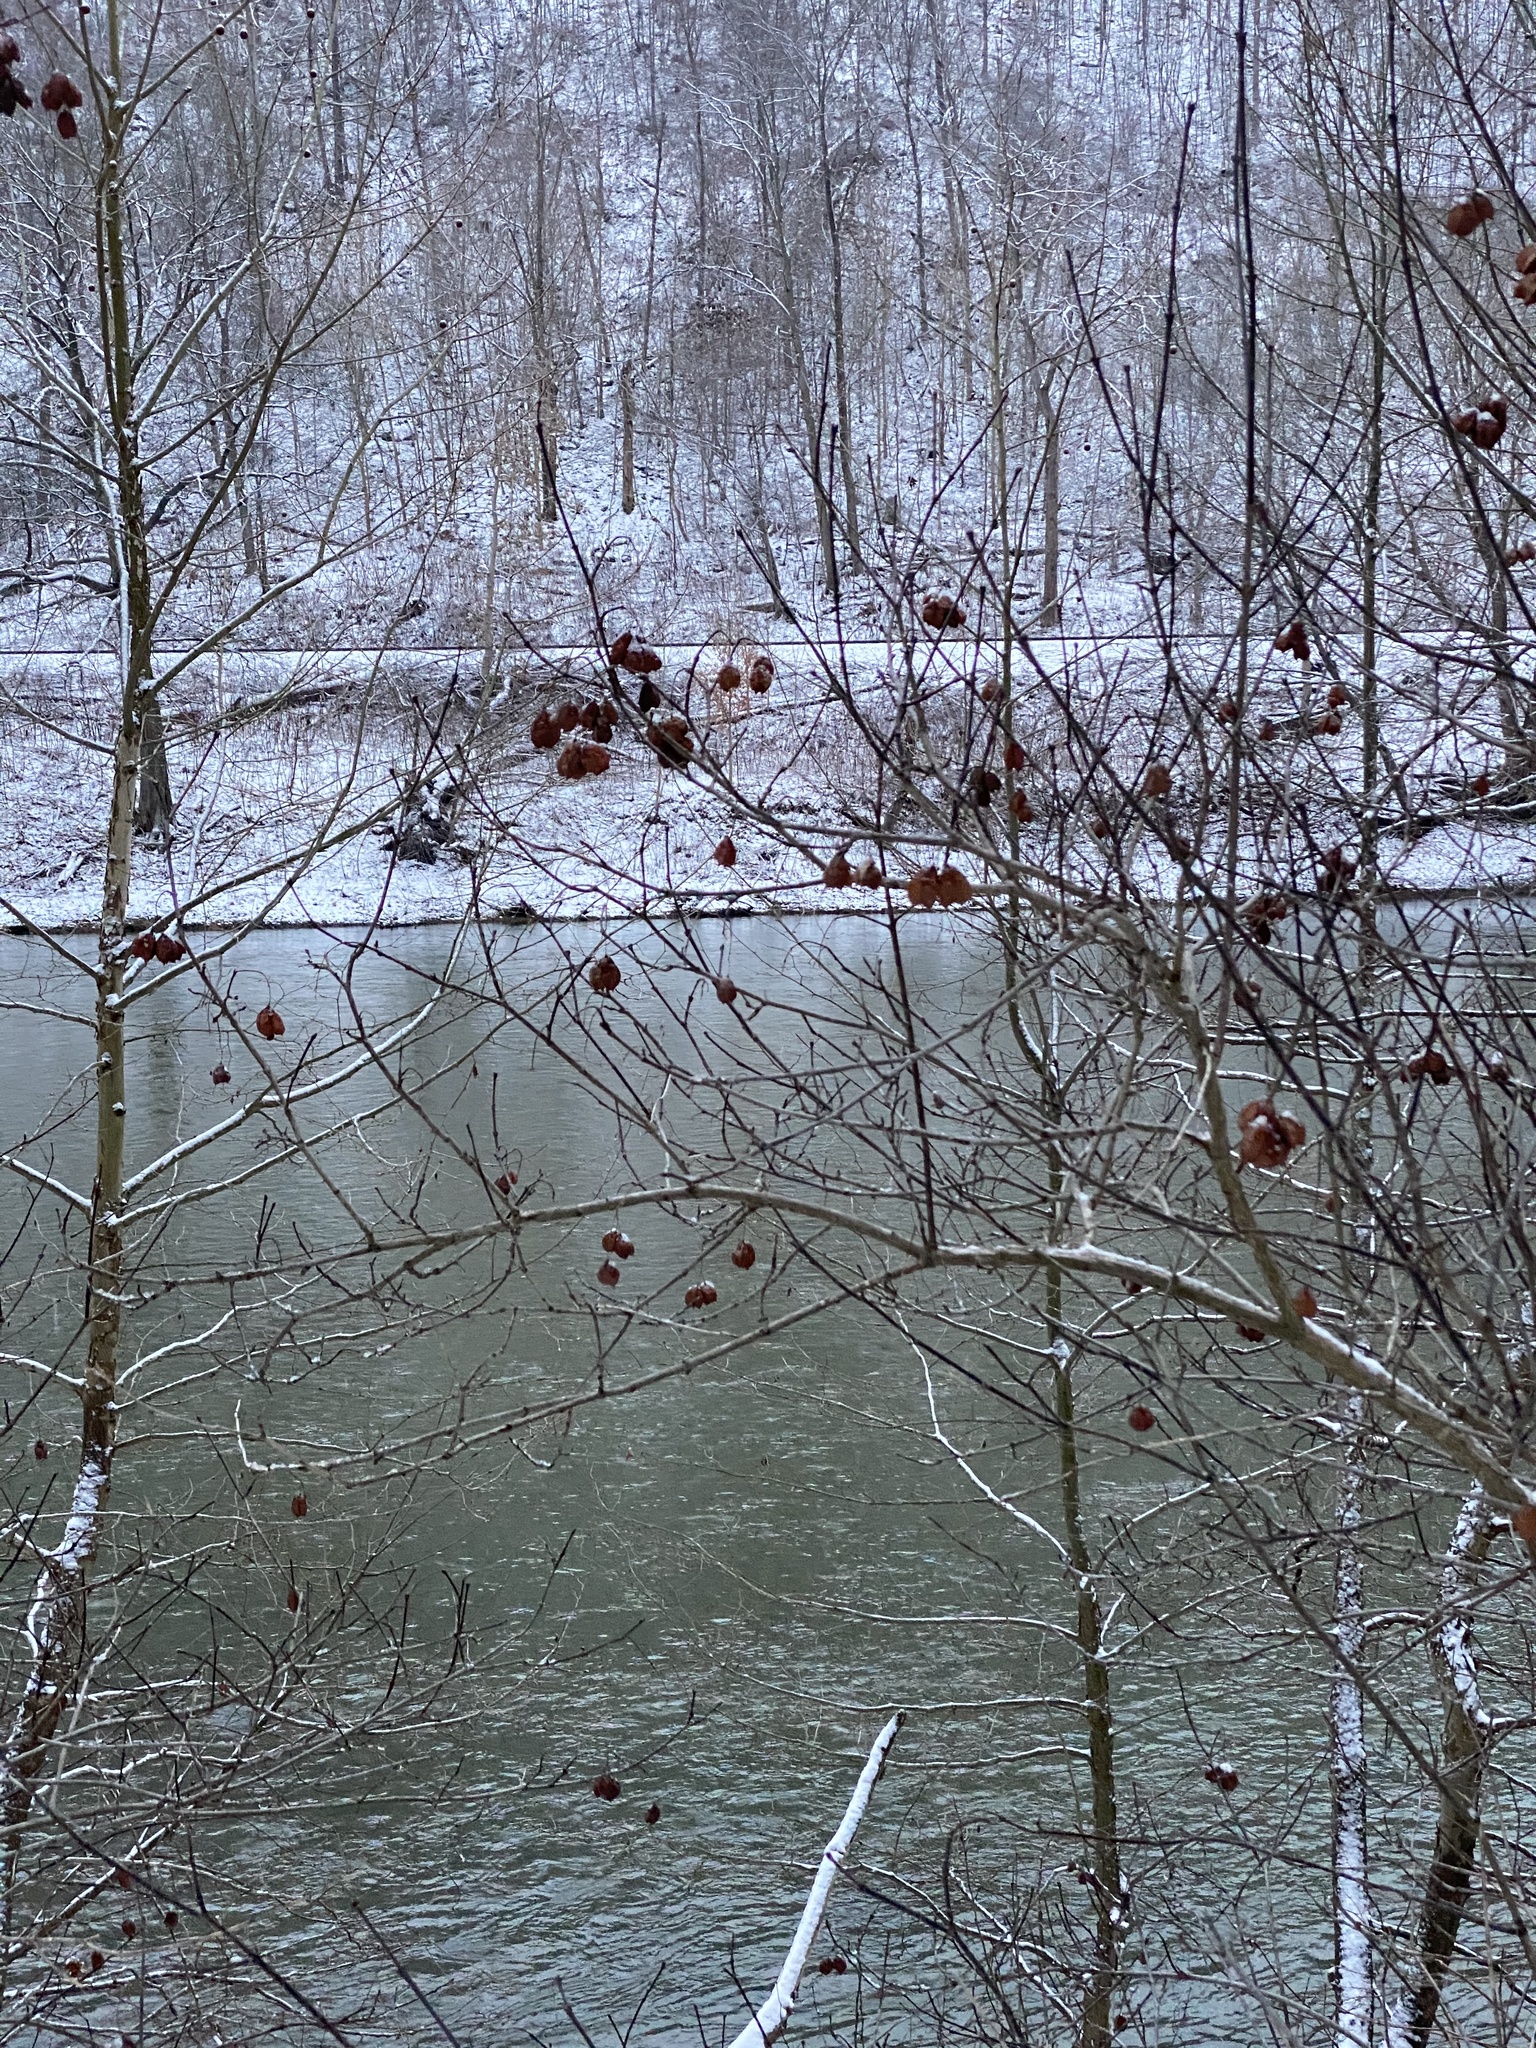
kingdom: Plantae
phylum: Tracheophyta
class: Magnoliopsida
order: Crossosomatales
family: Staphyleaceae
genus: Staphylea
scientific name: Staphylea trifolia
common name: American bladdernut
